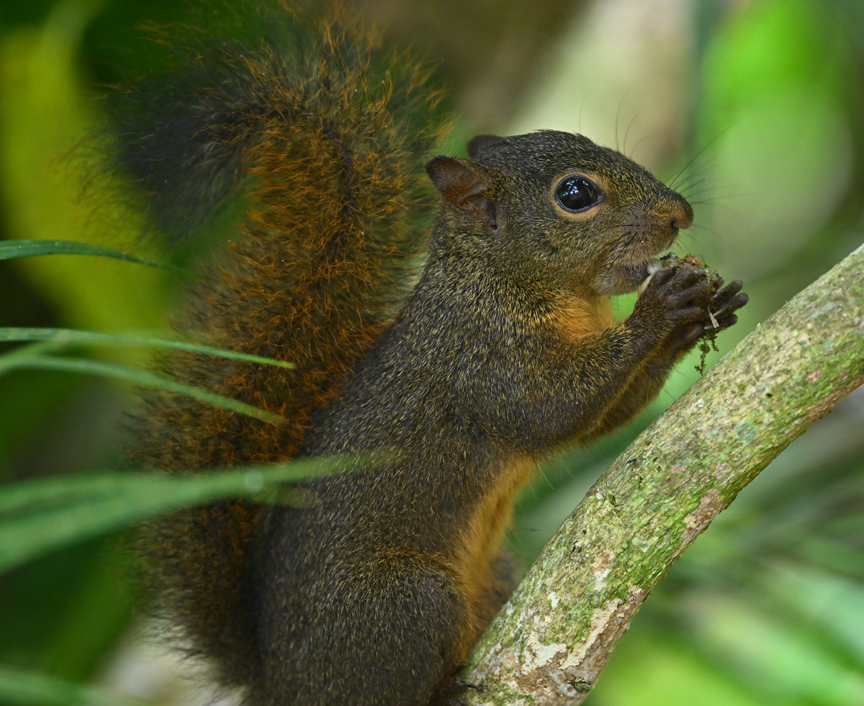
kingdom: Animalia
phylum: Chordata
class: Mammalia
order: Rodentia
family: Sciuridae
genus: Sciurus
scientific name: Sciurus granatensis
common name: Red-tailed squirrel
